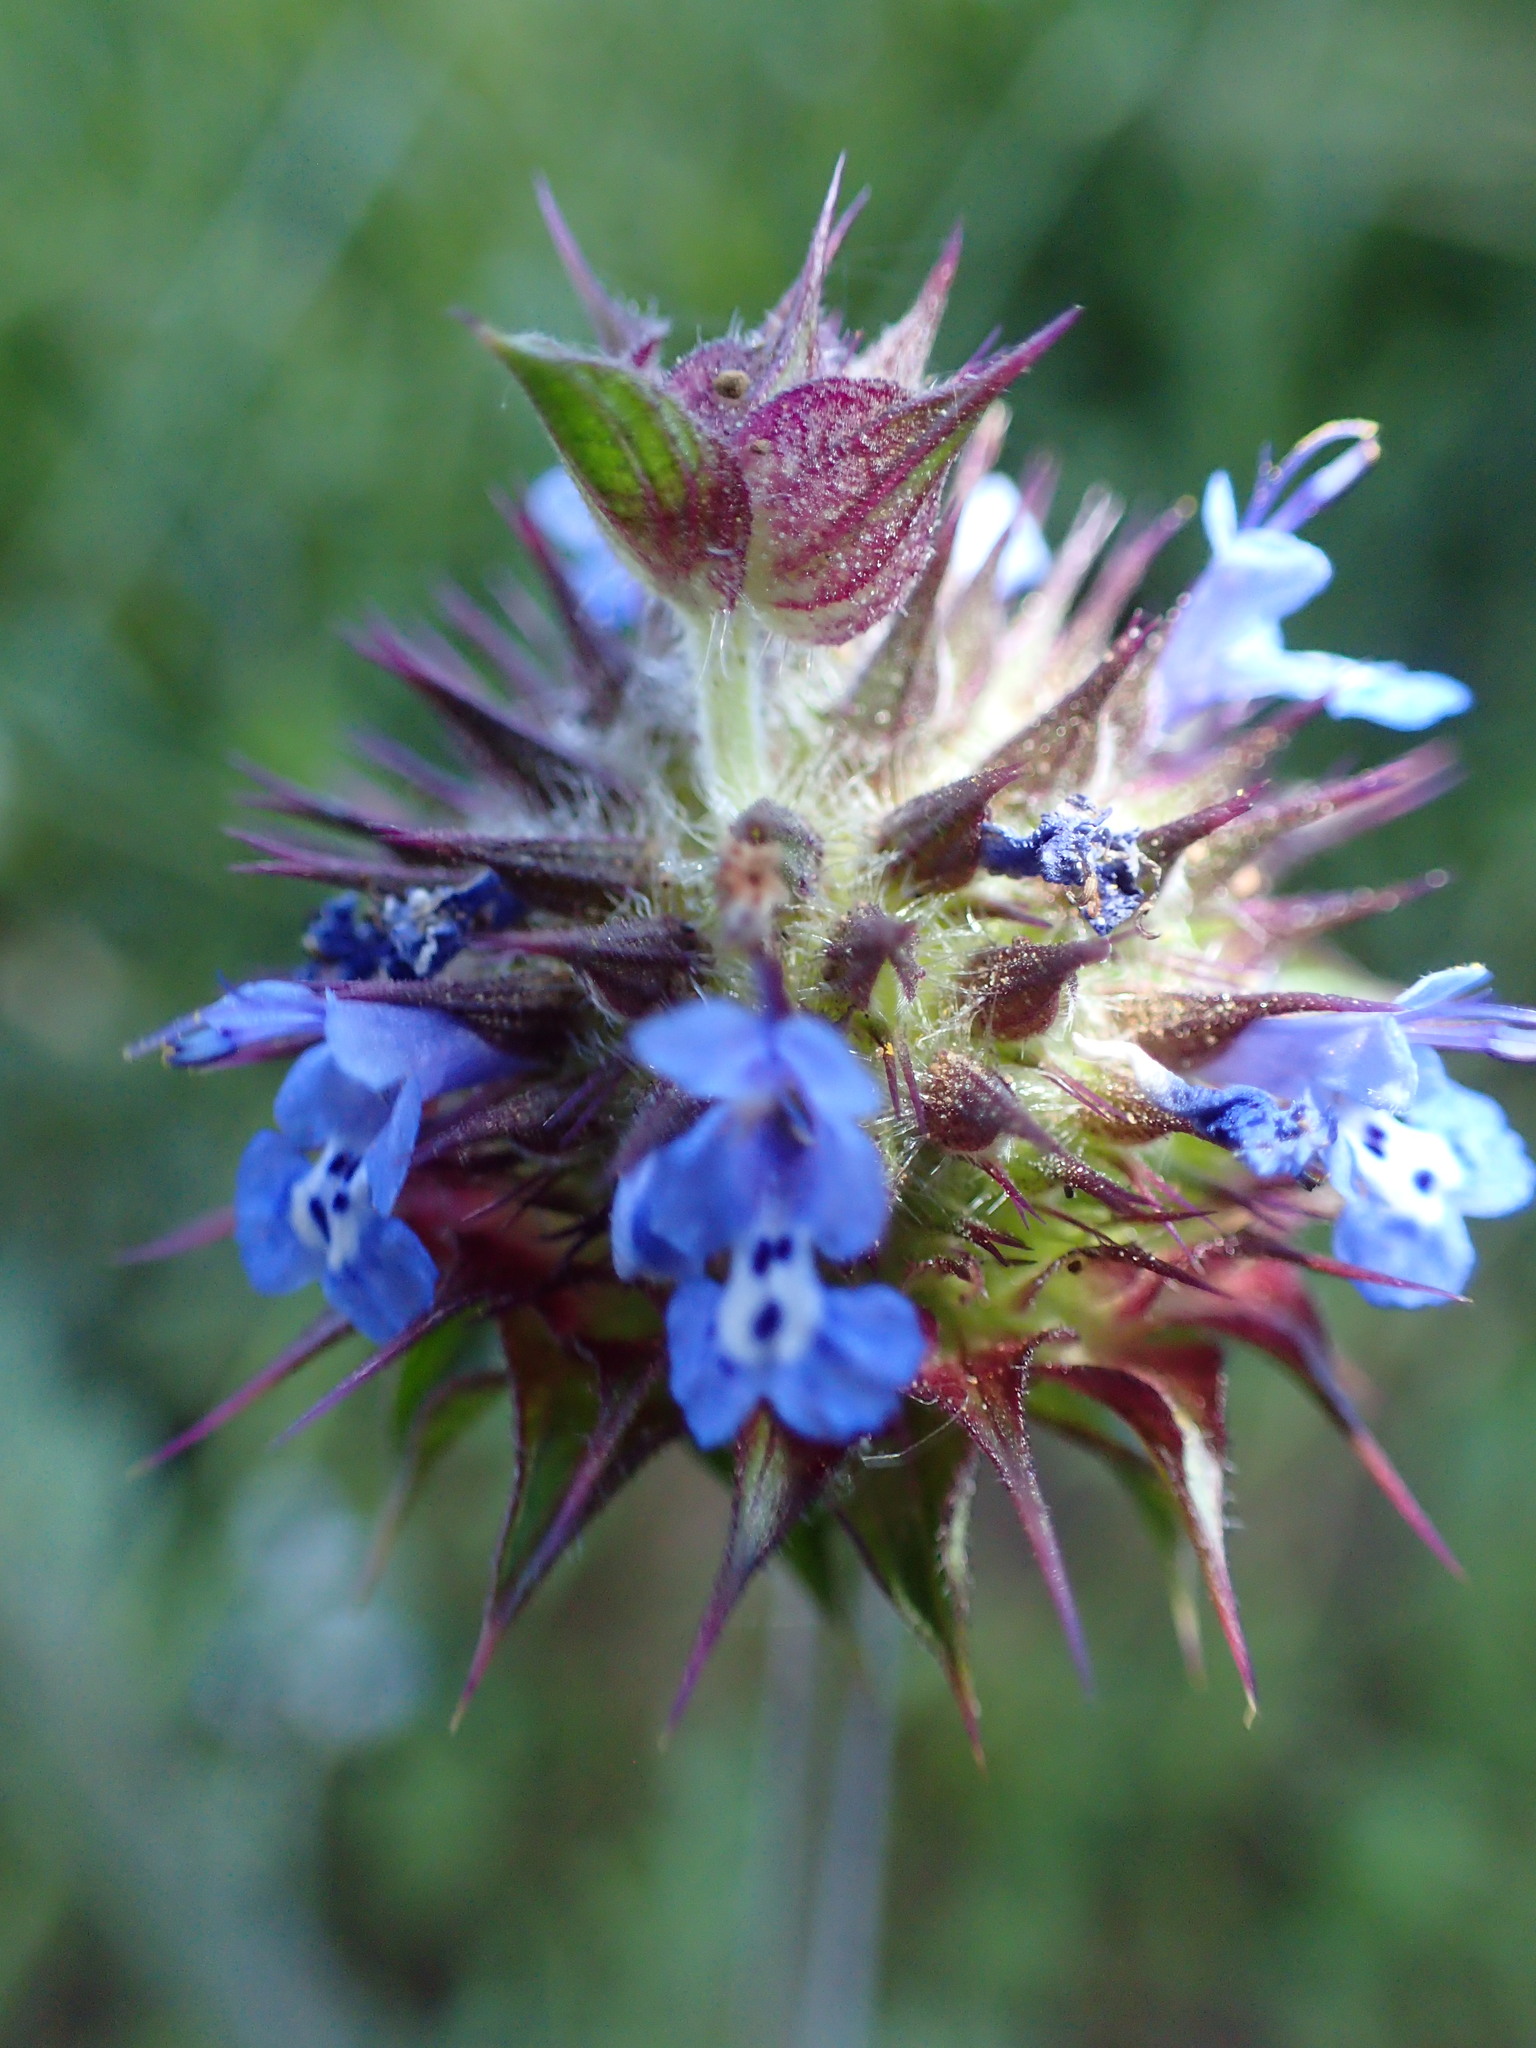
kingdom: Plantae
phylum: Tracheophyta
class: Magnoliopsida
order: Lamiales
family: Lamiaceae
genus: Salvia
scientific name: Salvia columbariae
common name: Chia
